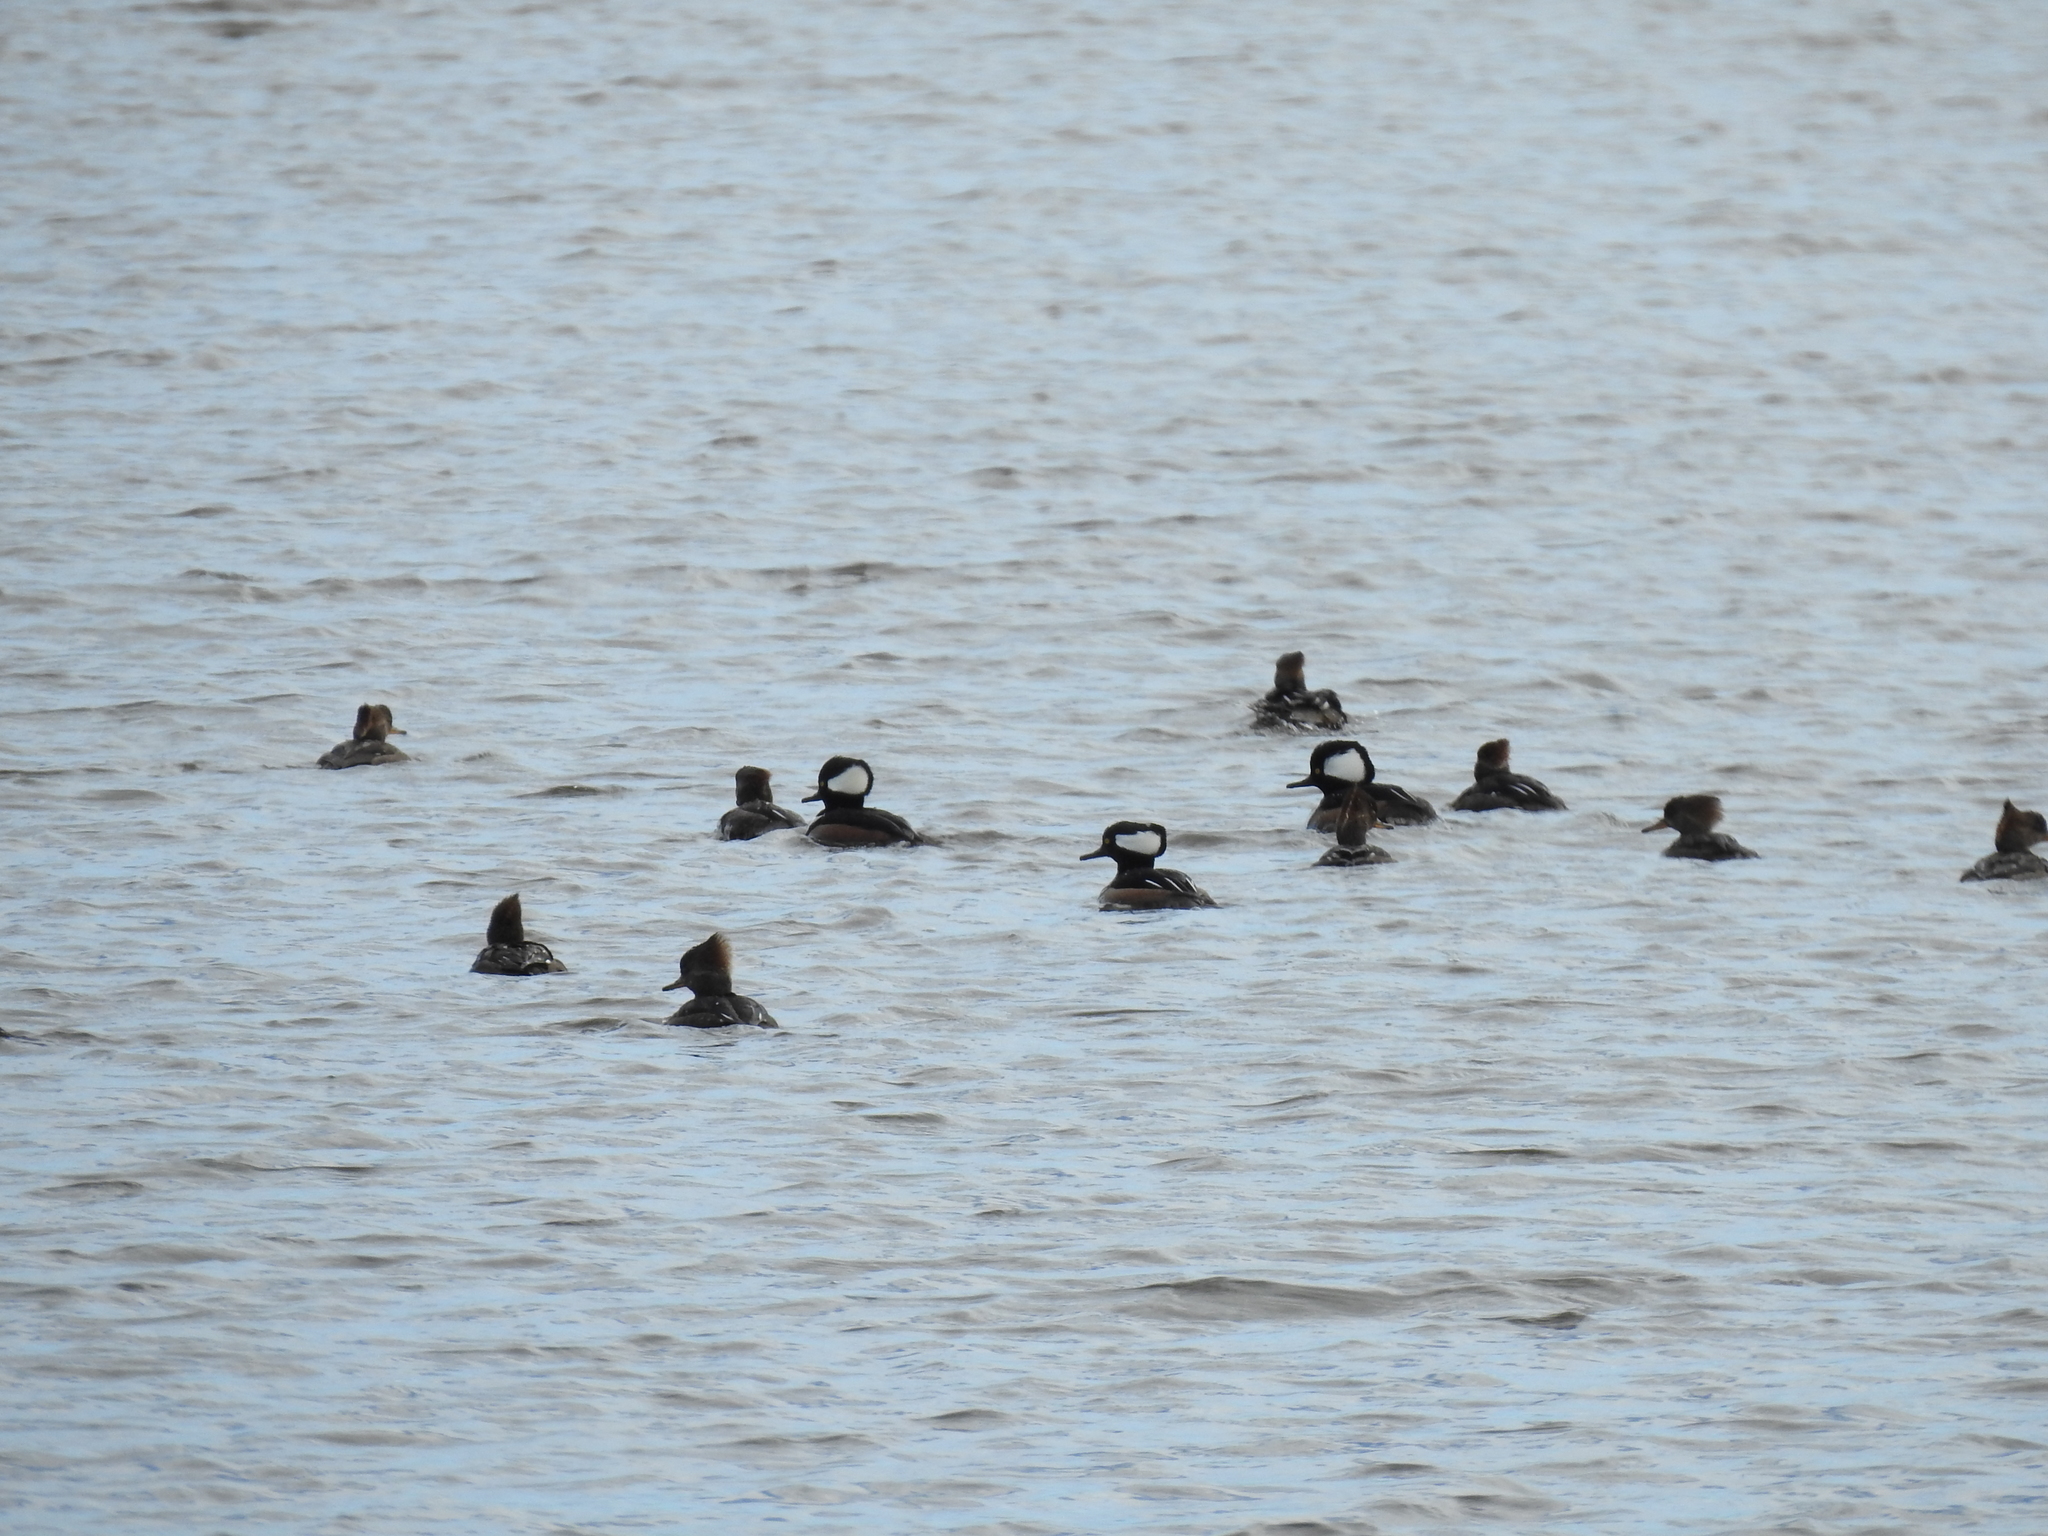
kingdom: Animalia
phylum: Chordata
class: Aves
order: Anseriformes
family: Anatidae
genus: Lophodytes
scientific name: Lophodytes cucullatus
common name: Hooded merganser
